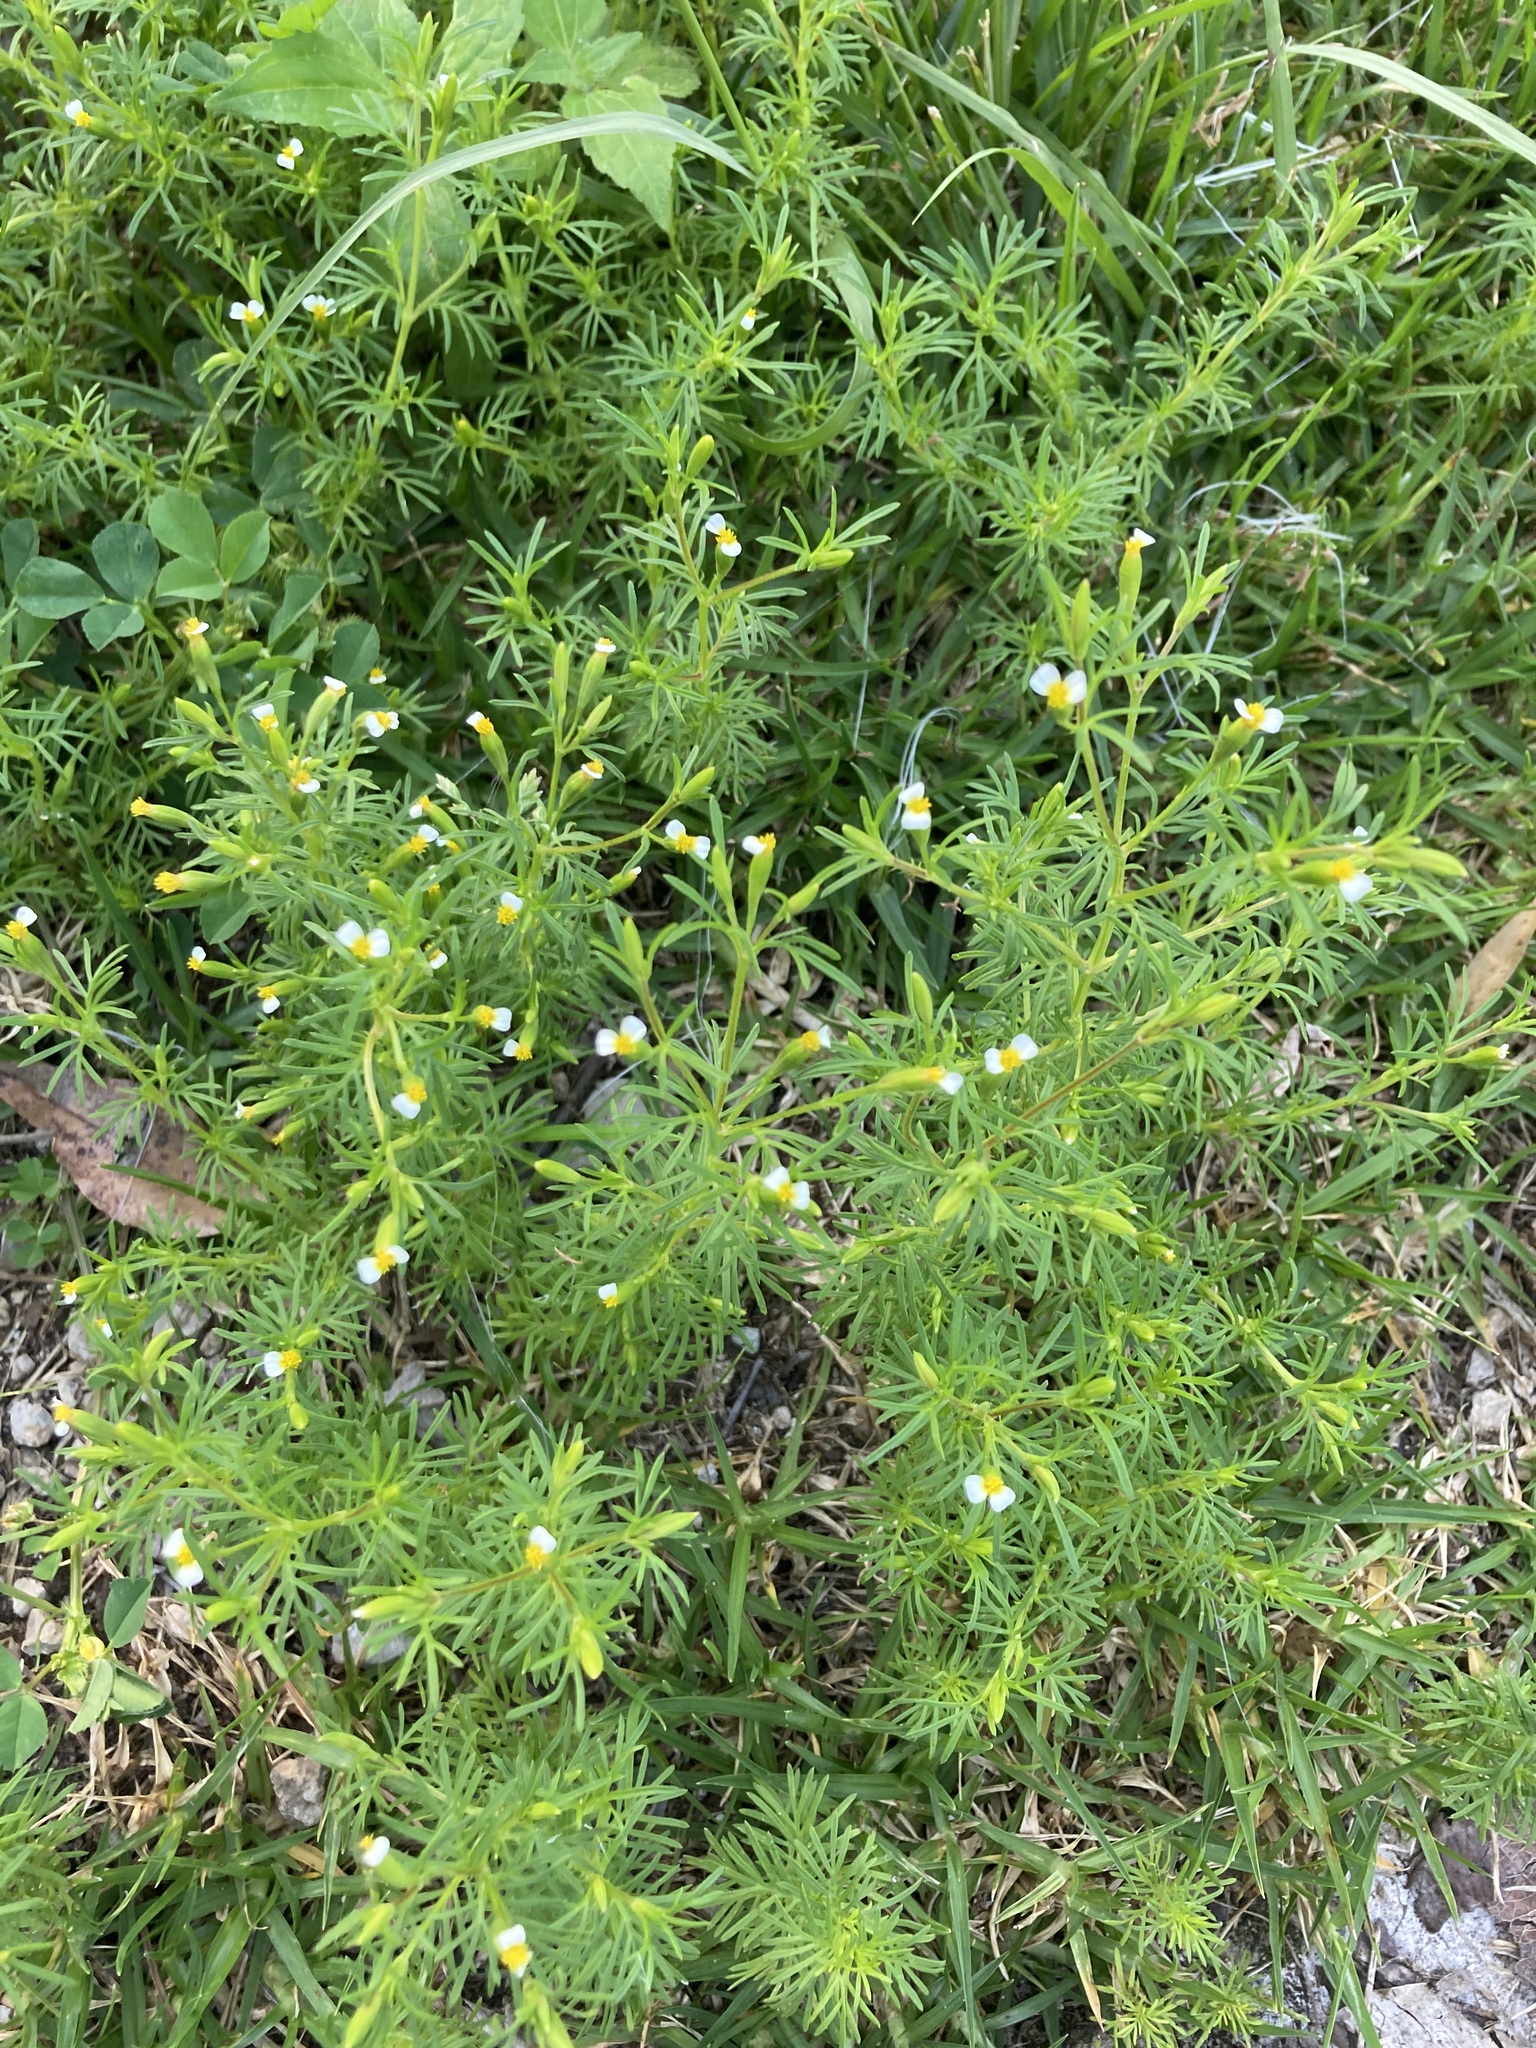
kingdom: Plantae
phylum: Tracheophyta
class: Magnoliopsida
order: Asterales
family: Asteraceae
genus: Tagetes
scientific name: Tagetes filifolia
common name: Lesser marigold
